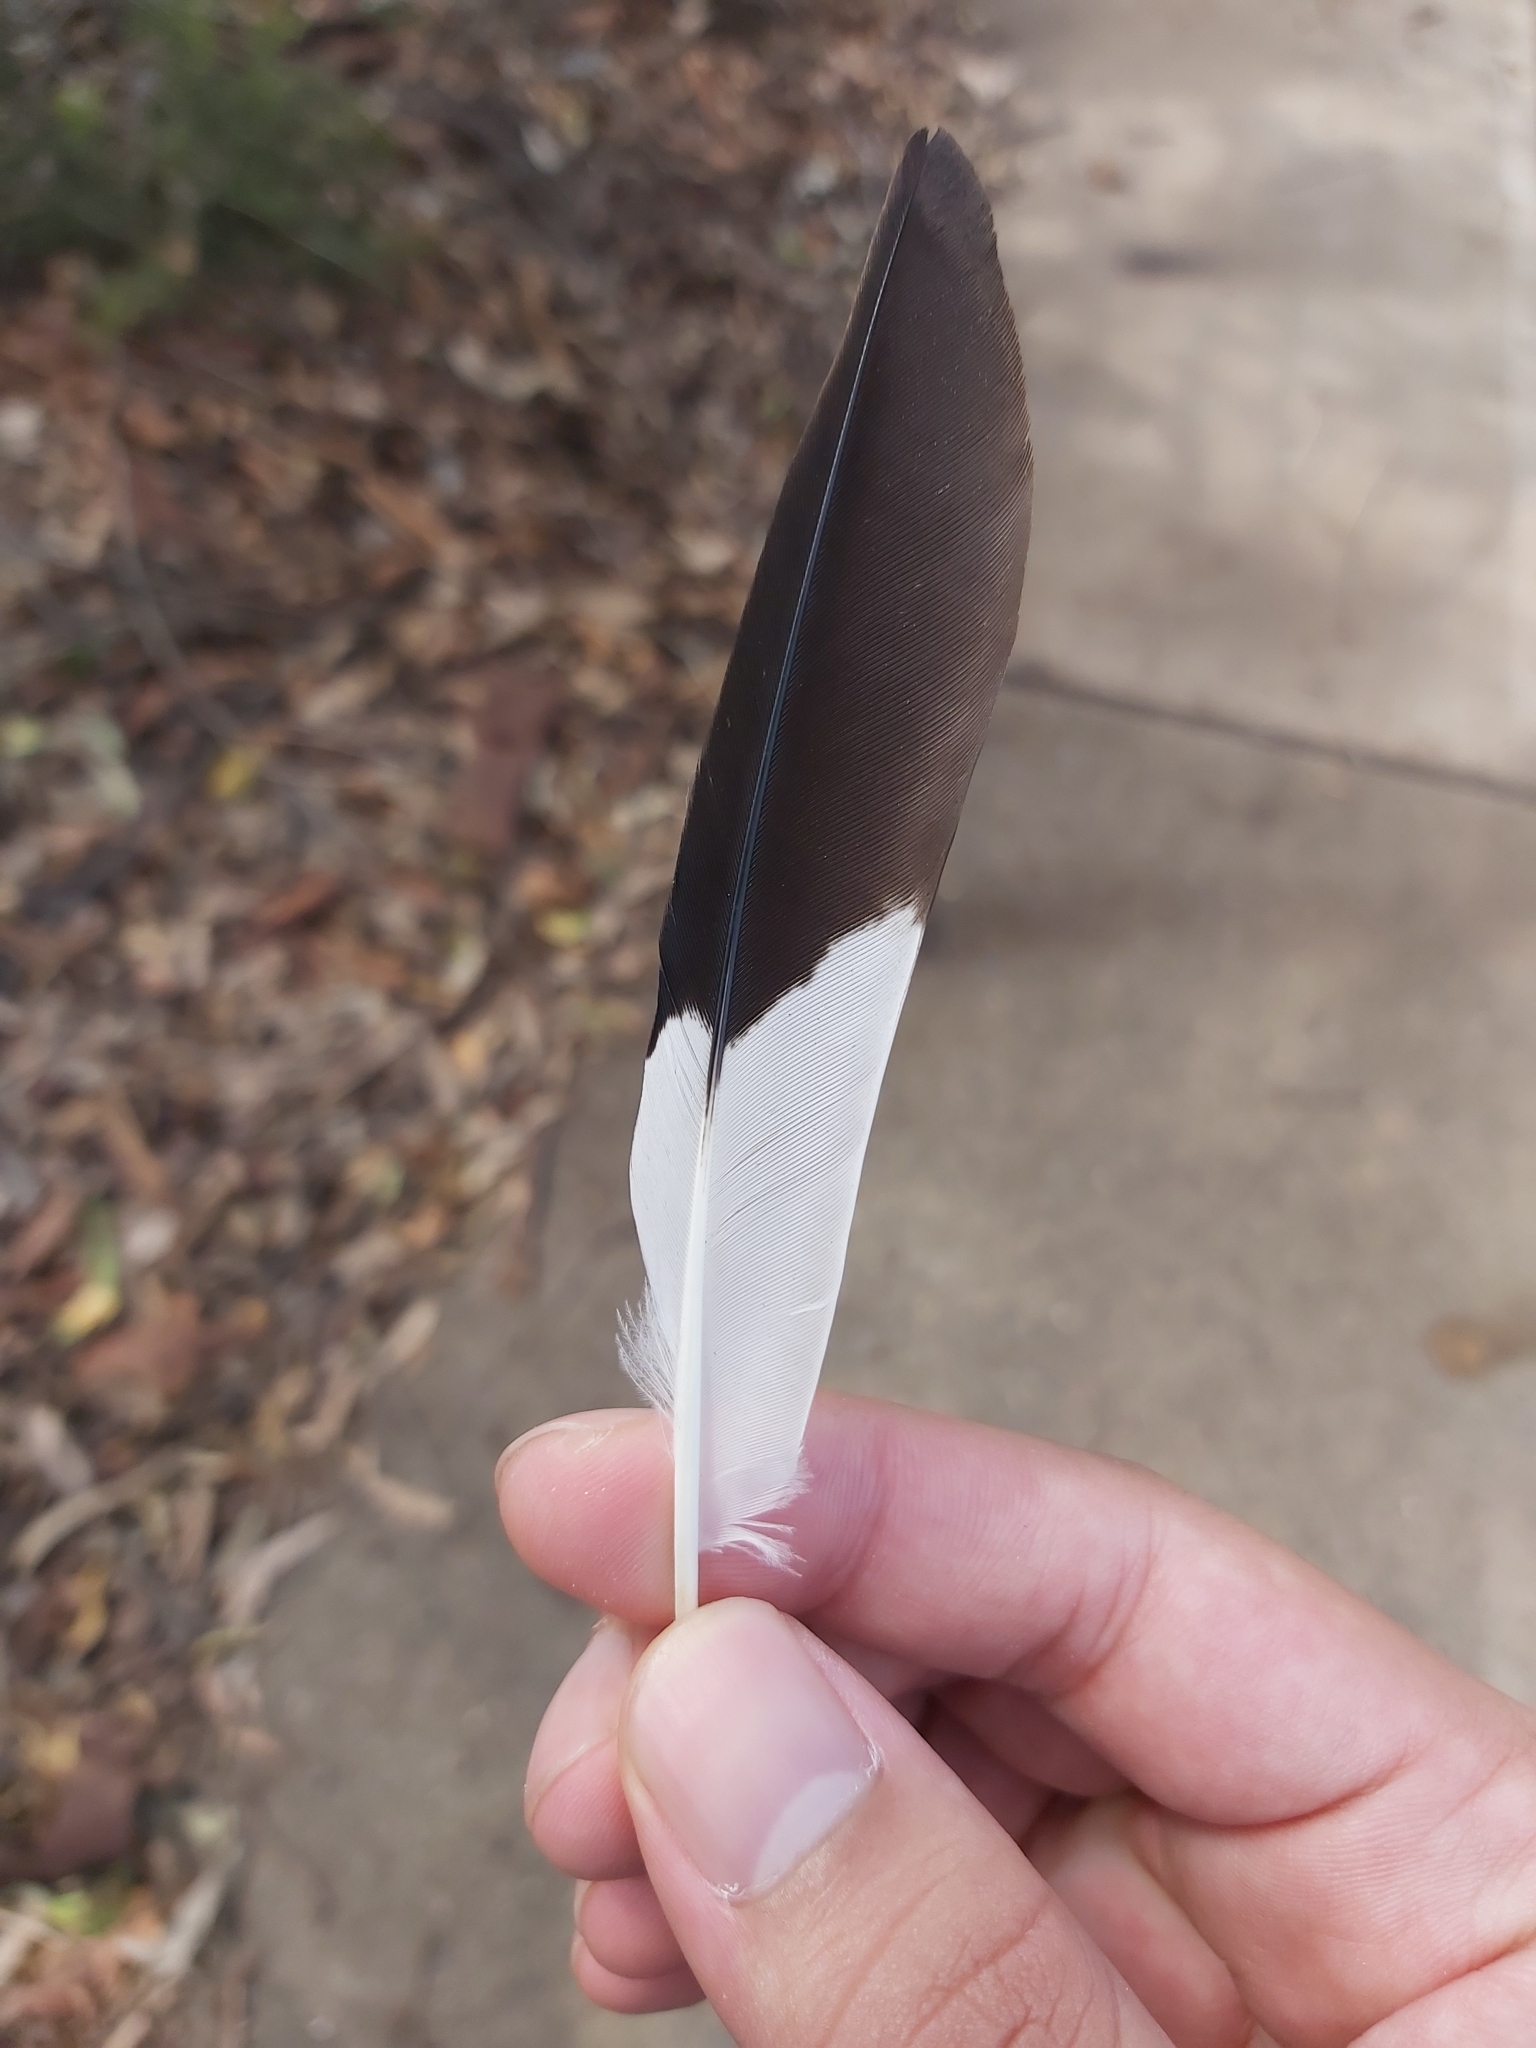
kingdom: Animalia
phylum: Chordata
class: Aves
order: Passeriformes
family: Sturnidae
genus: Acridotheres
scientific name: Acridotheres tristis
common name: Common myna
